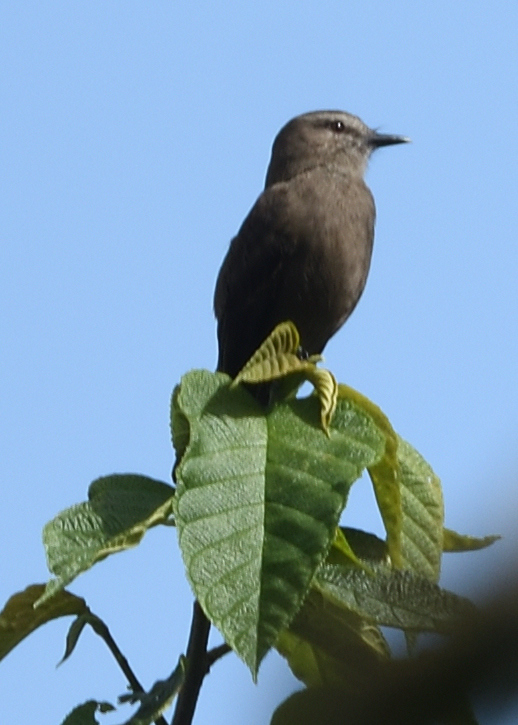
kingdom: Animalia
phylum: Chordata
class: Aves
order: Passeriformes
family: Tyrannidae
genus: Myiotheretes
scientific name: Myiotheretes fumigatus
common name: Smoky bush tyrant
